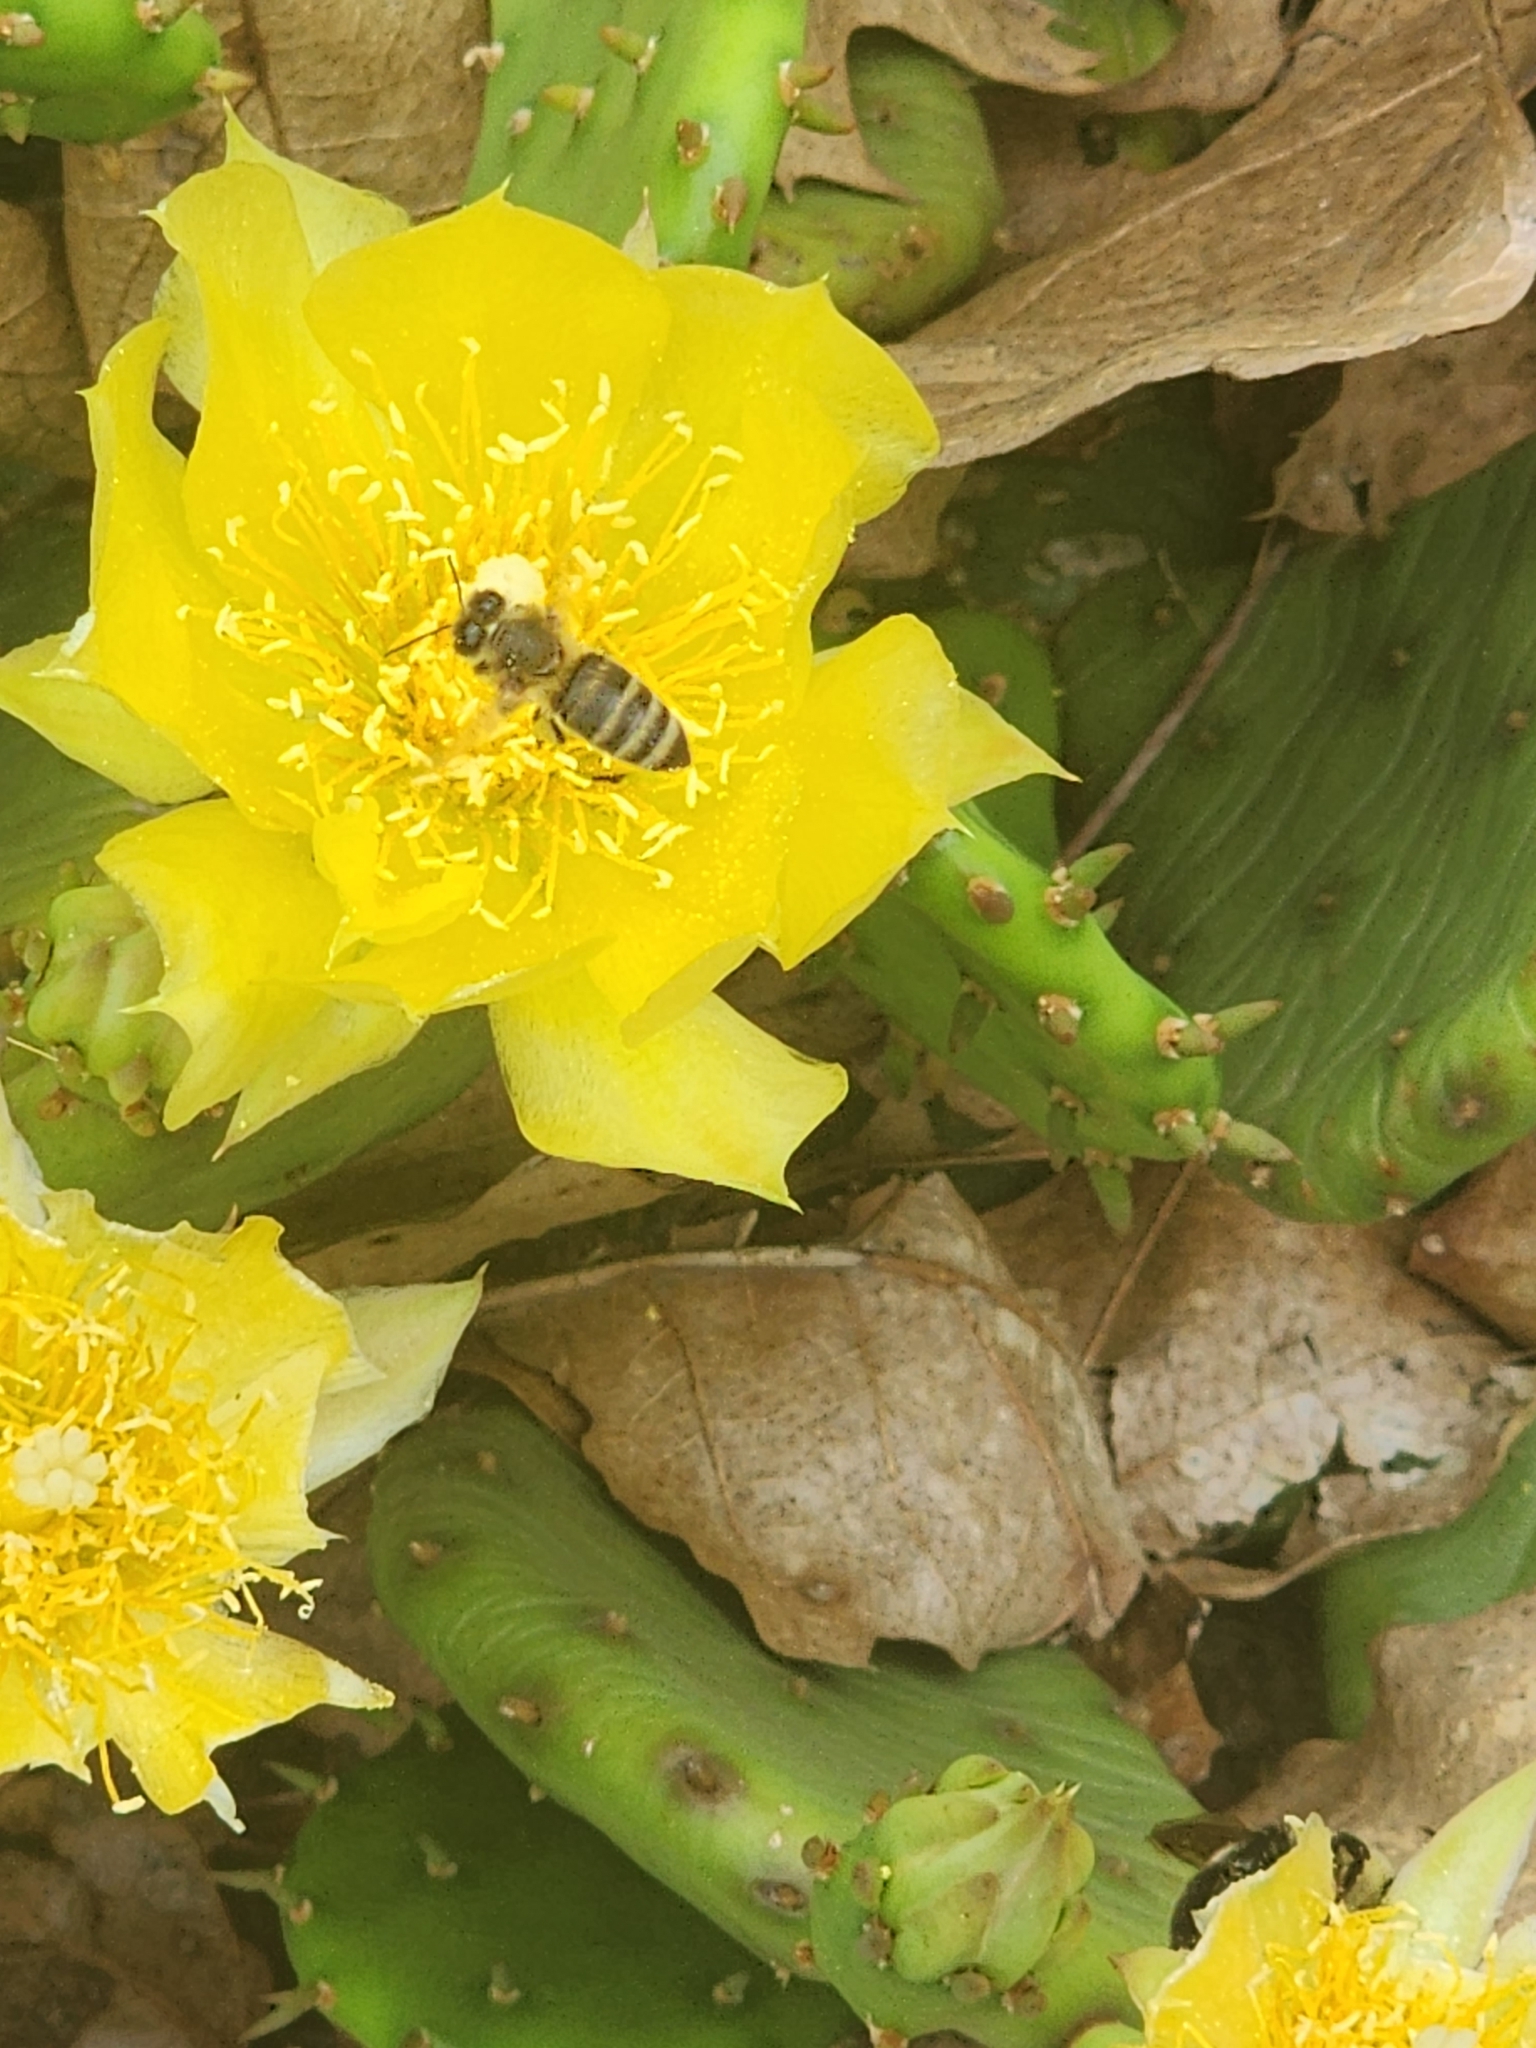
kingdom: Animalia
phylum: Arthropoda
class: Insecta
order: Hymenoptera
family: Apidae
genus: Apis
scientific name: Apis mellifera
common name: Honey bee
